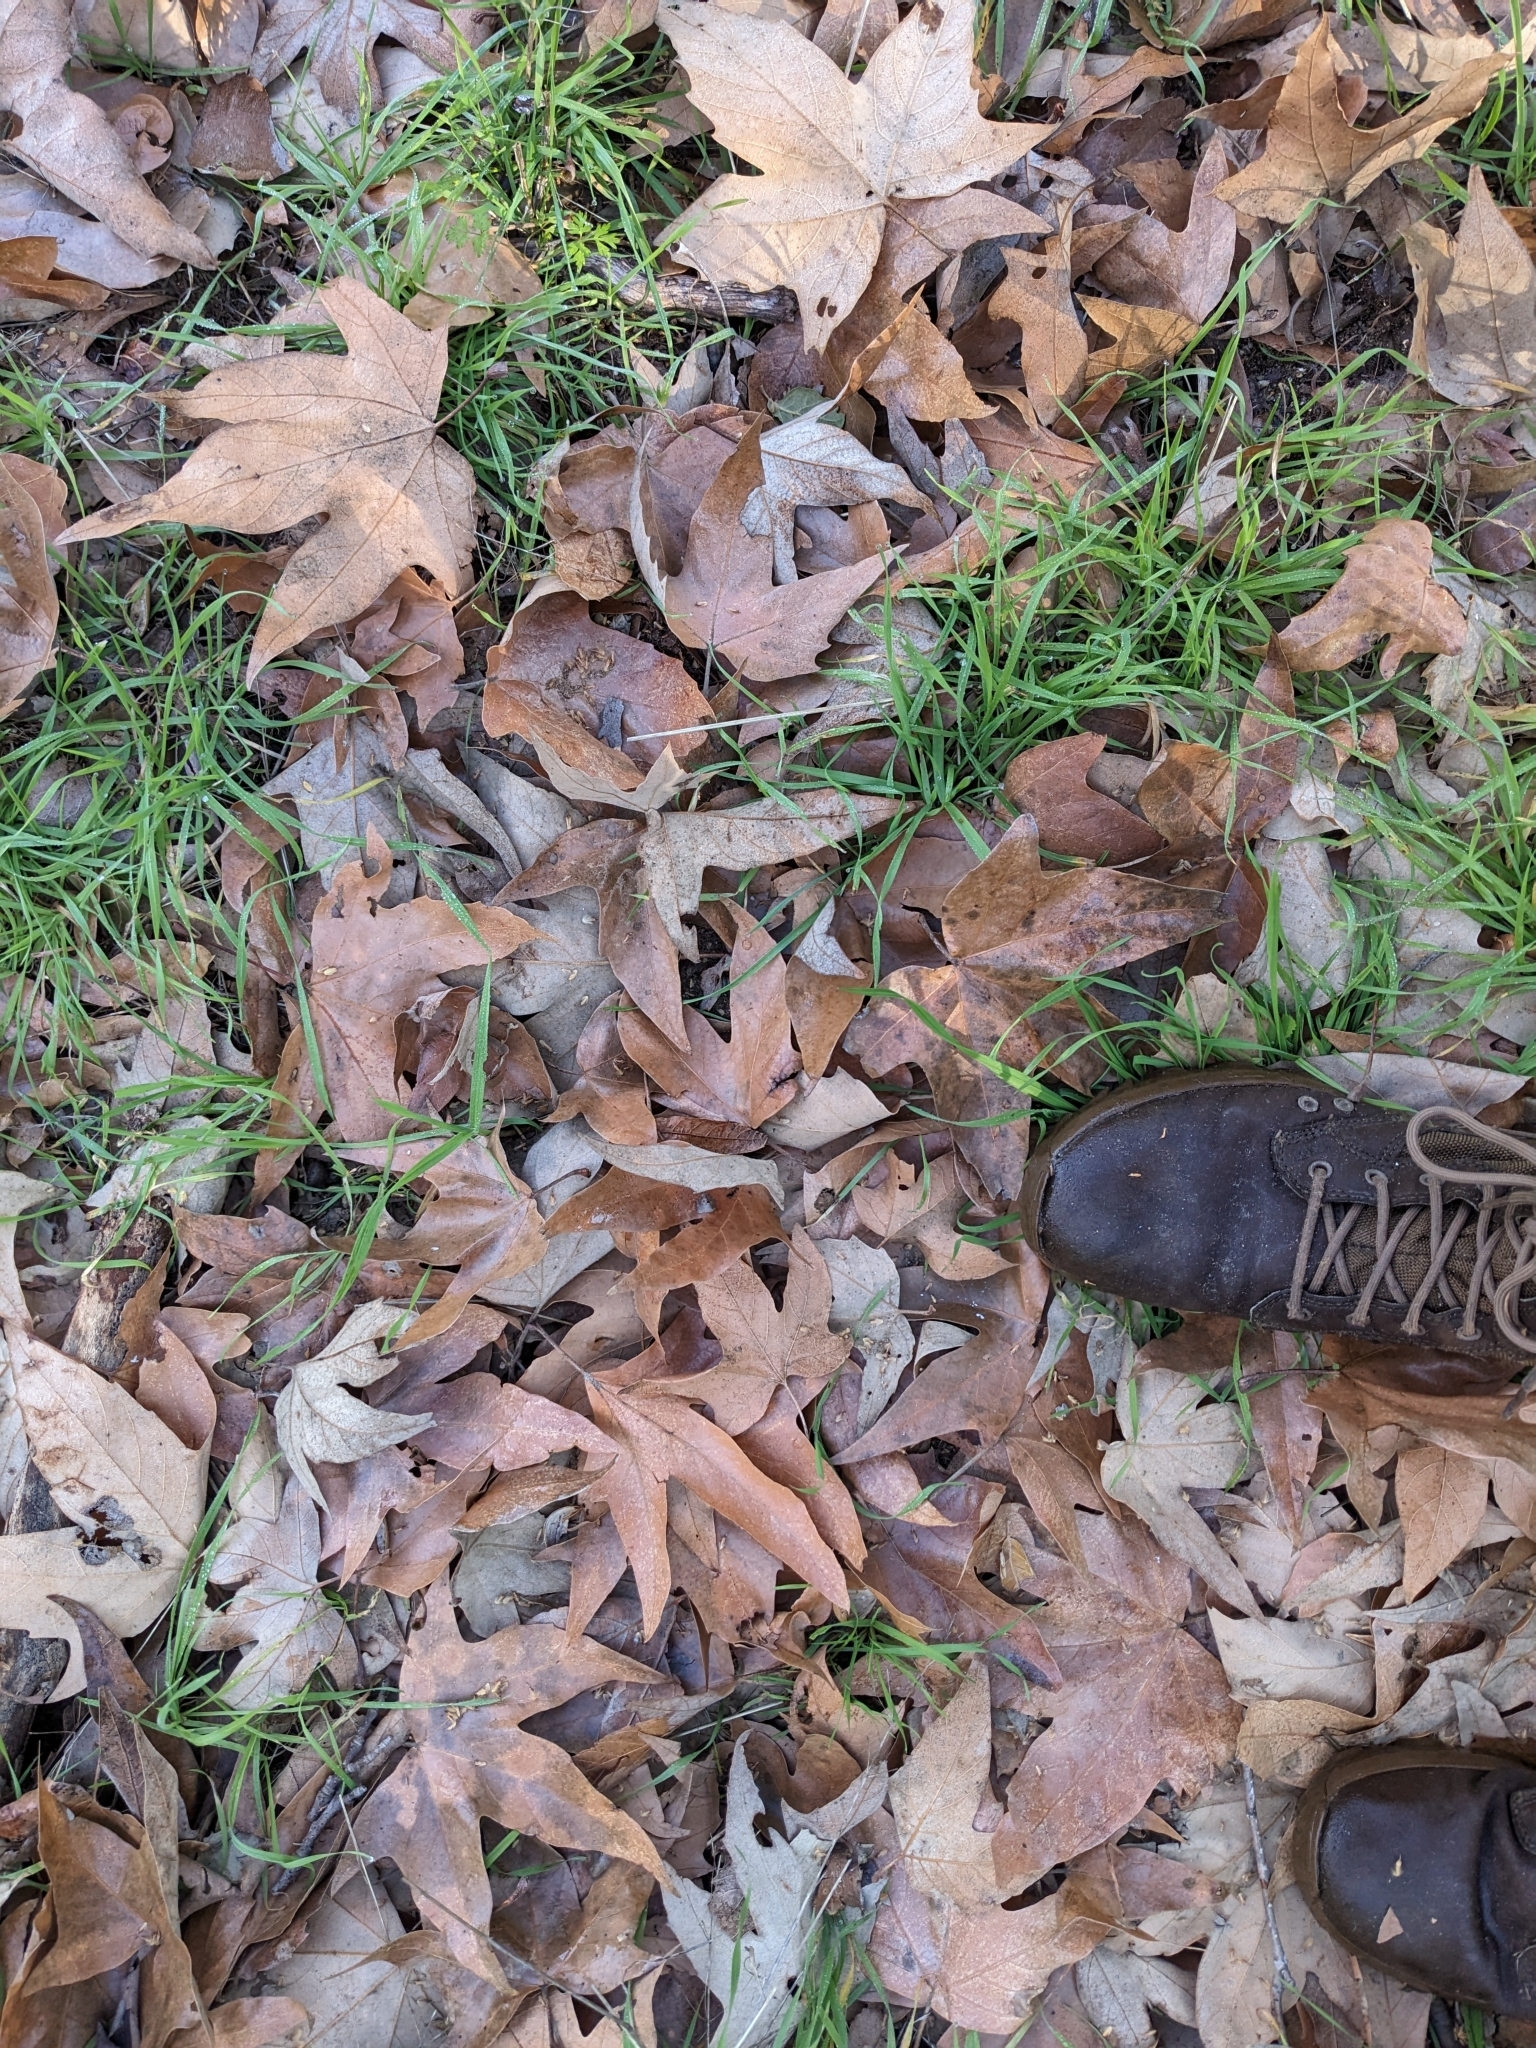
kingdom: Plantae
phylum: Tracheophyta
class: Magnoliopsida
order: Proteales
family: Platanaceae
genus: Platanus
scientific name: Platanus racemosa
